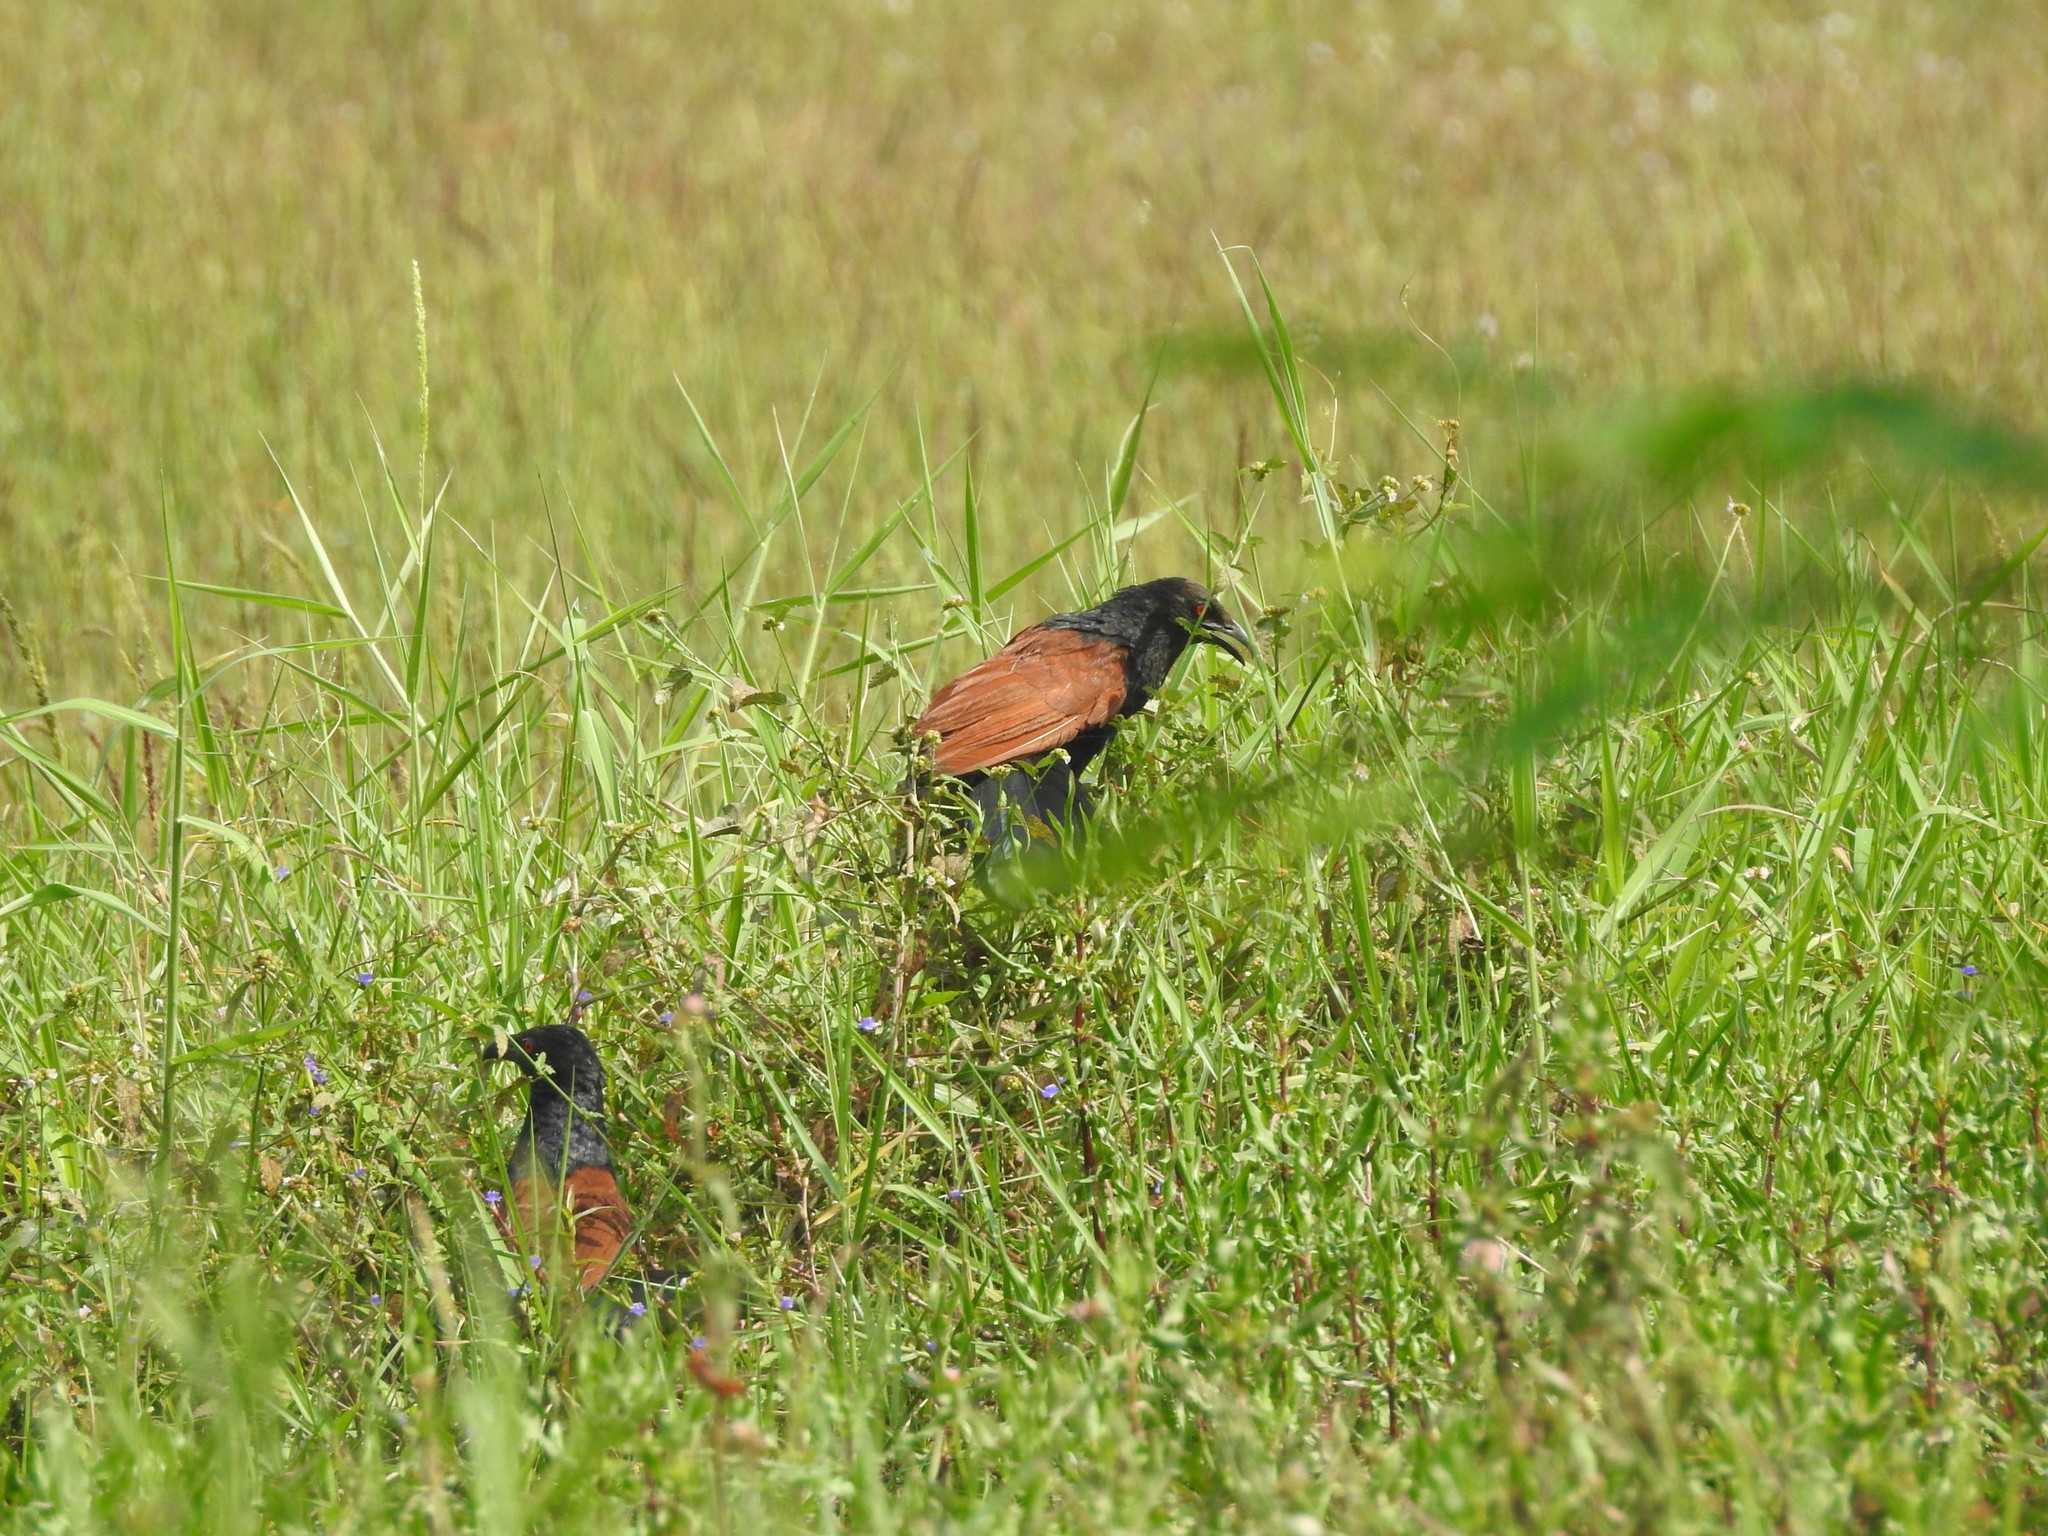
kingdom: Animalia
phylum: Chordata
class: Aves
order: Cuculiformes
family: Cuculidae
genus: Centropus
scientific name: Centropus sinensis
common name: Greater coucal
